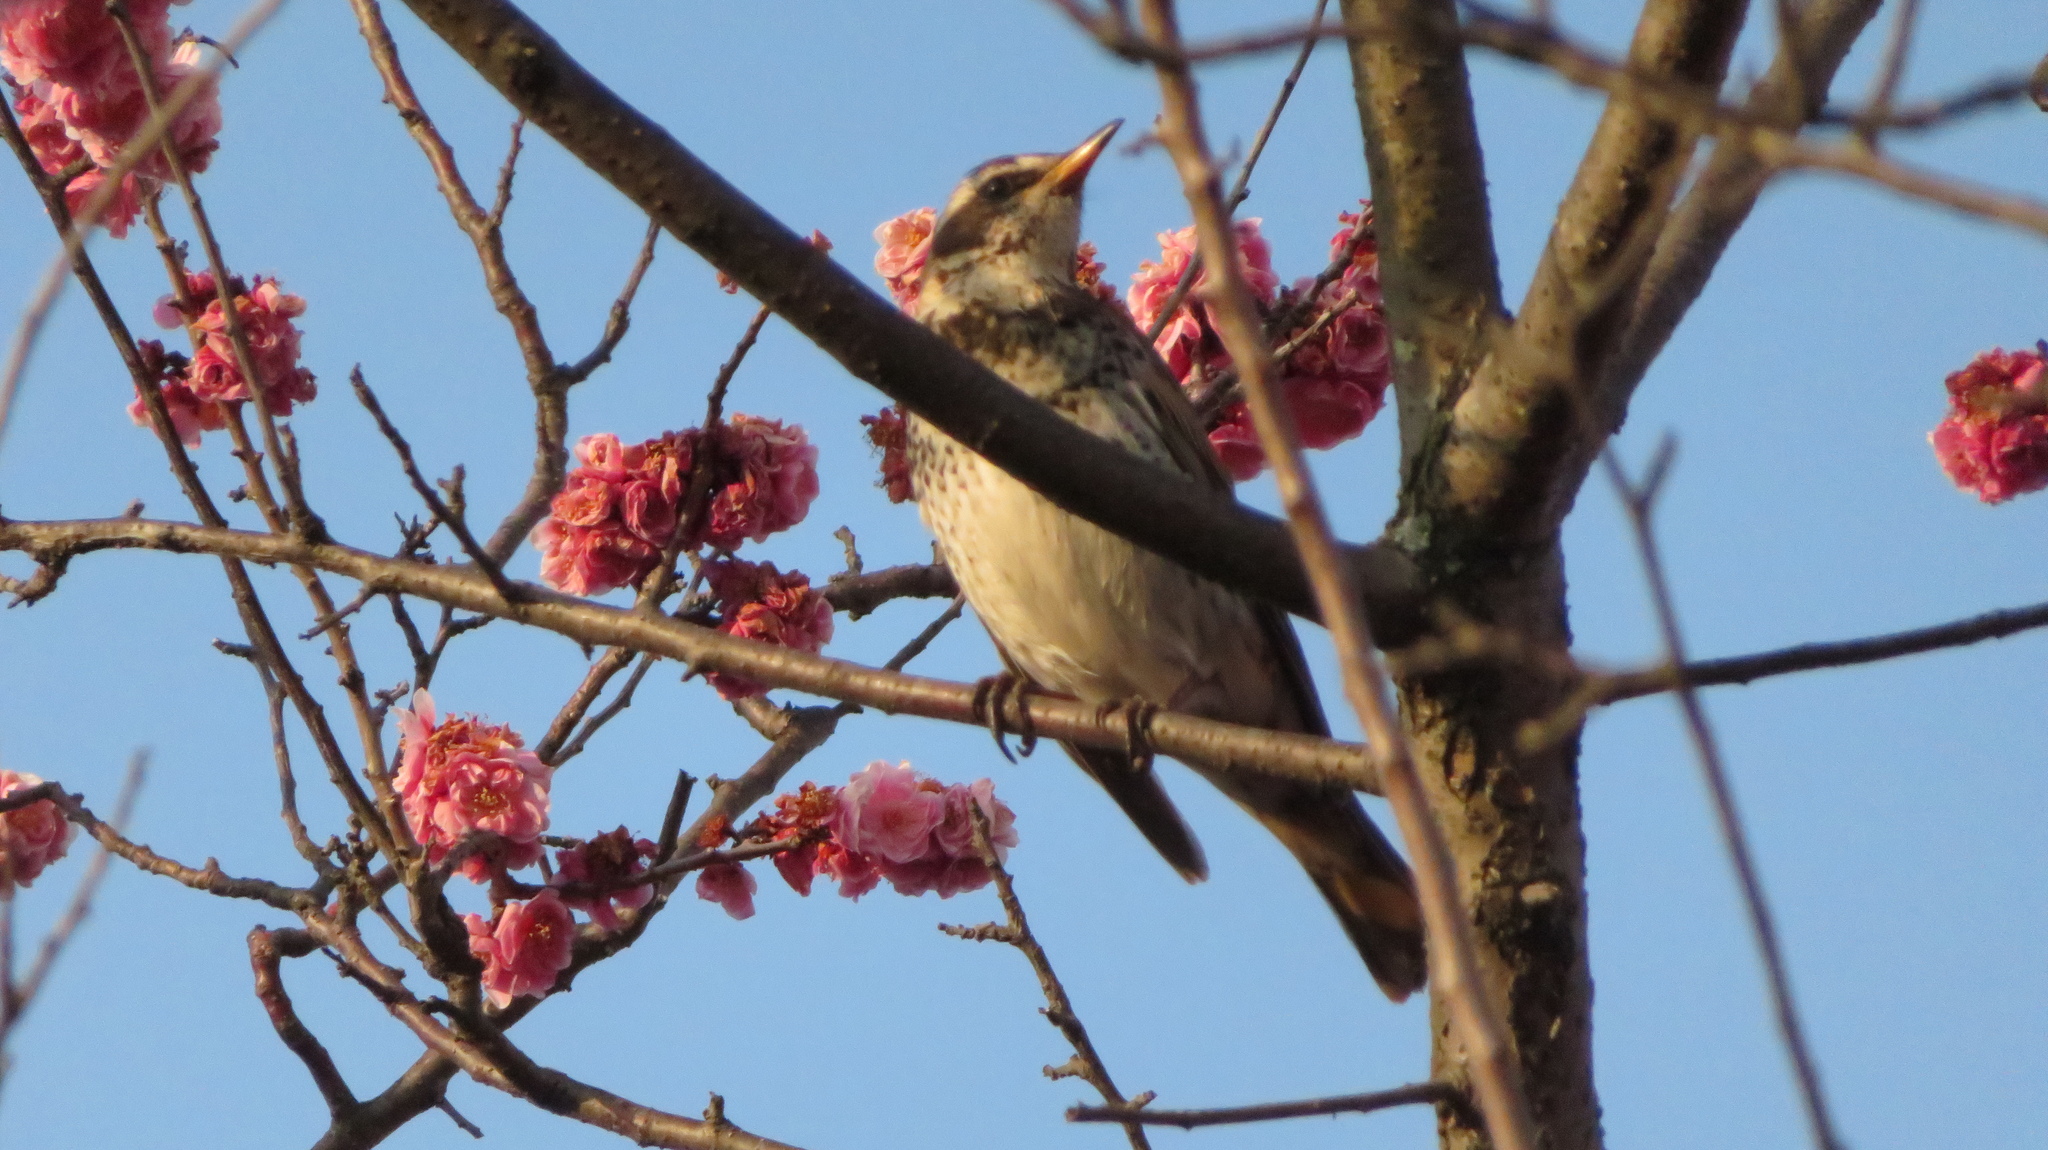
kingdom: Animalia
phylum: Chordata
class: Aves
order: Passeriformes
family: Turdidae
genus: Turdus
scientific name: Turdus eunomus
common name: Dusky thrush
